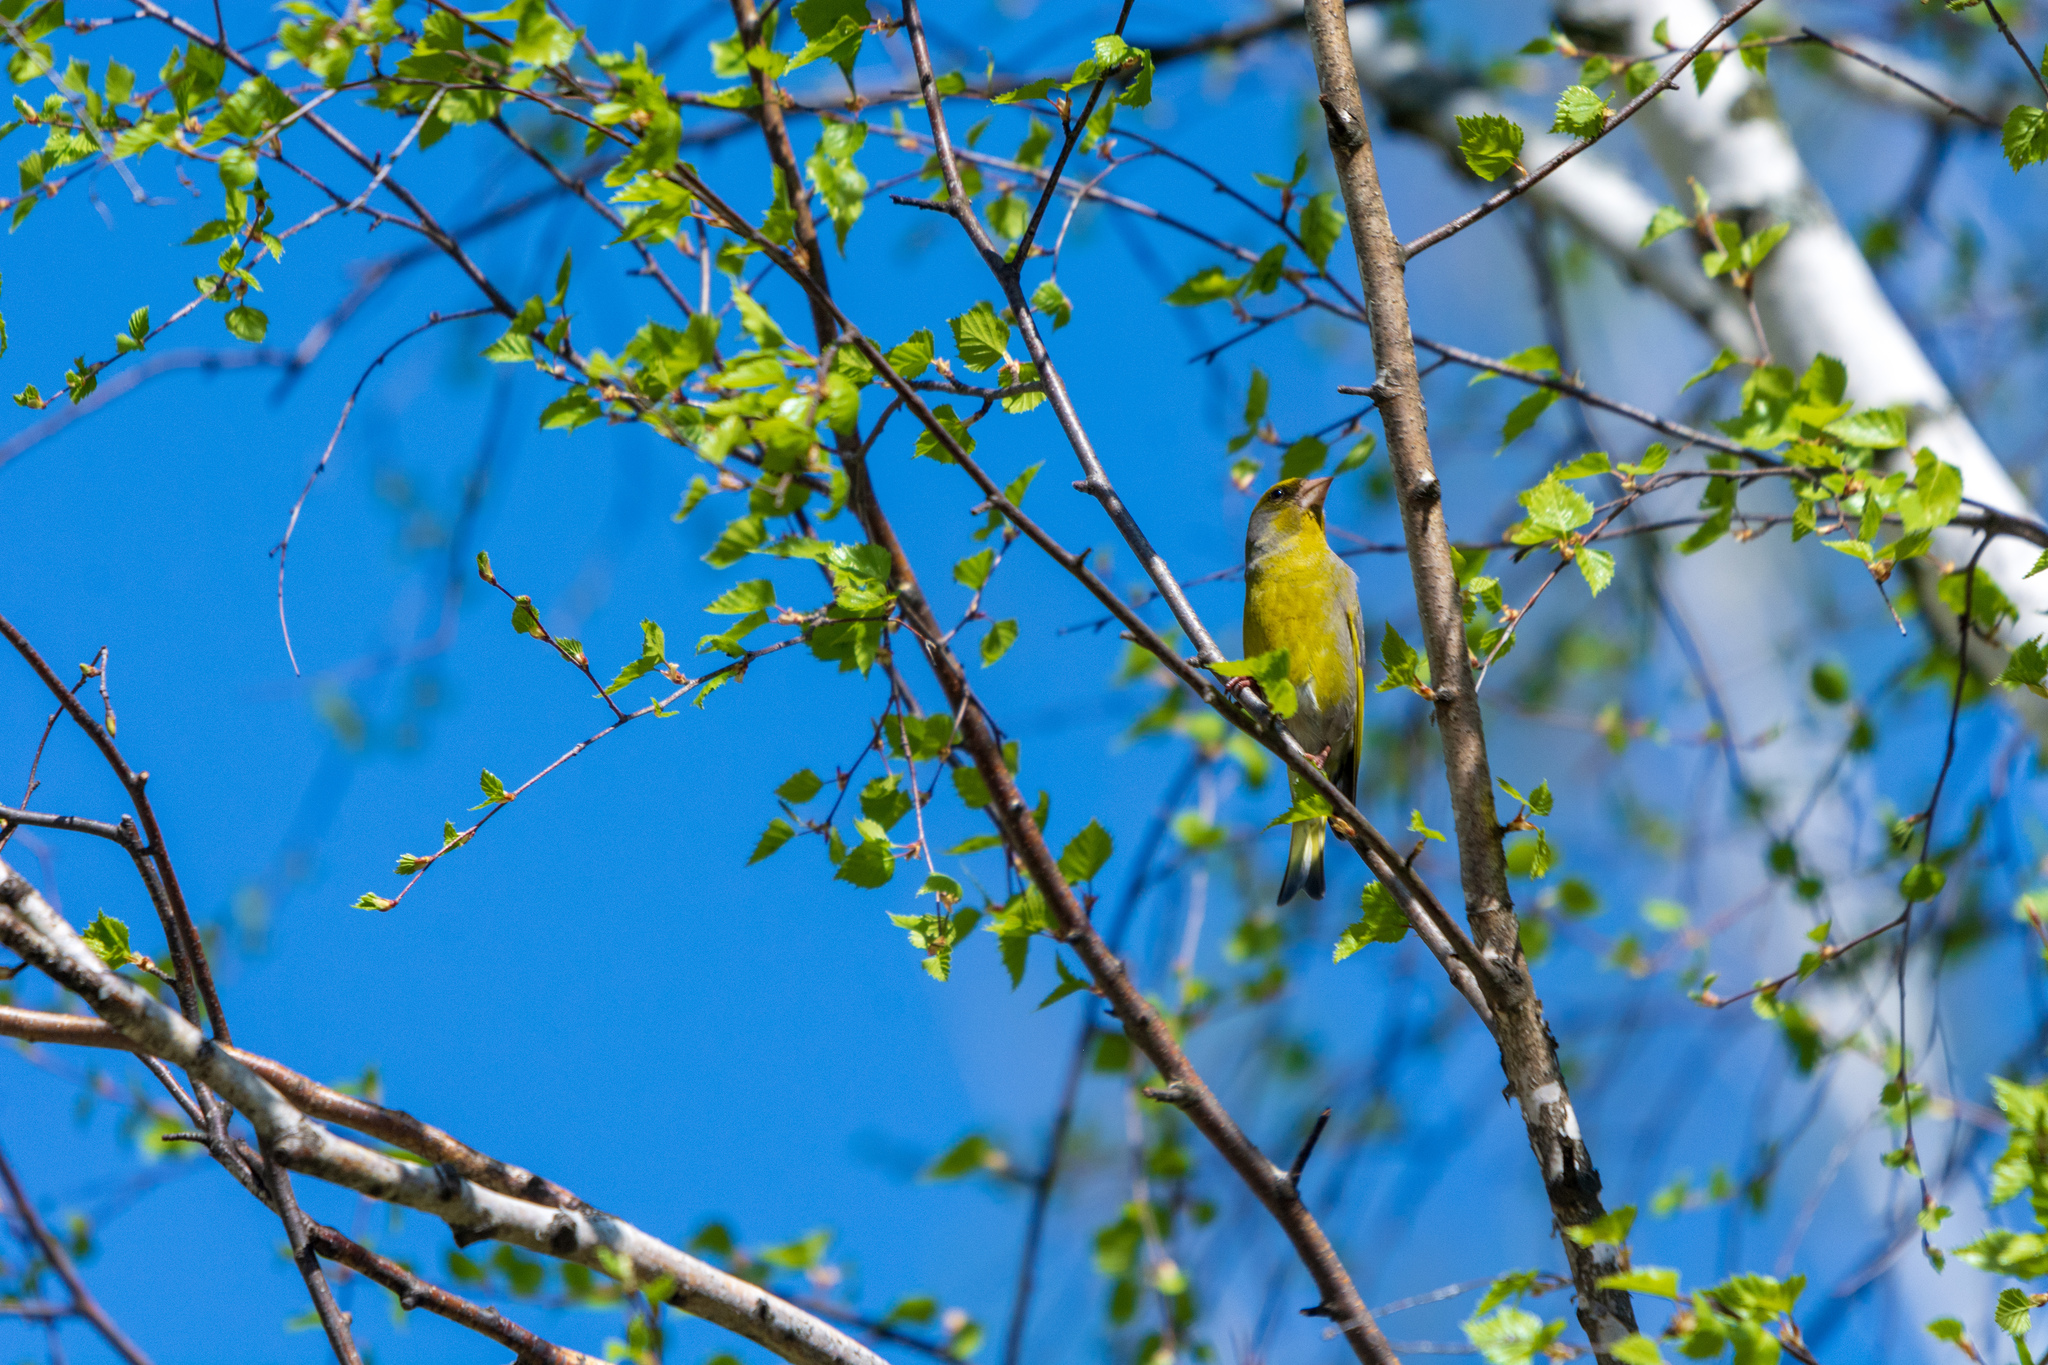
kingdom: Plantae
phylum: Tracheophyta
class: Liliopsida
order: Poales
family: Poaceae
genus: Chloris
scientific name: Chloris chloris
